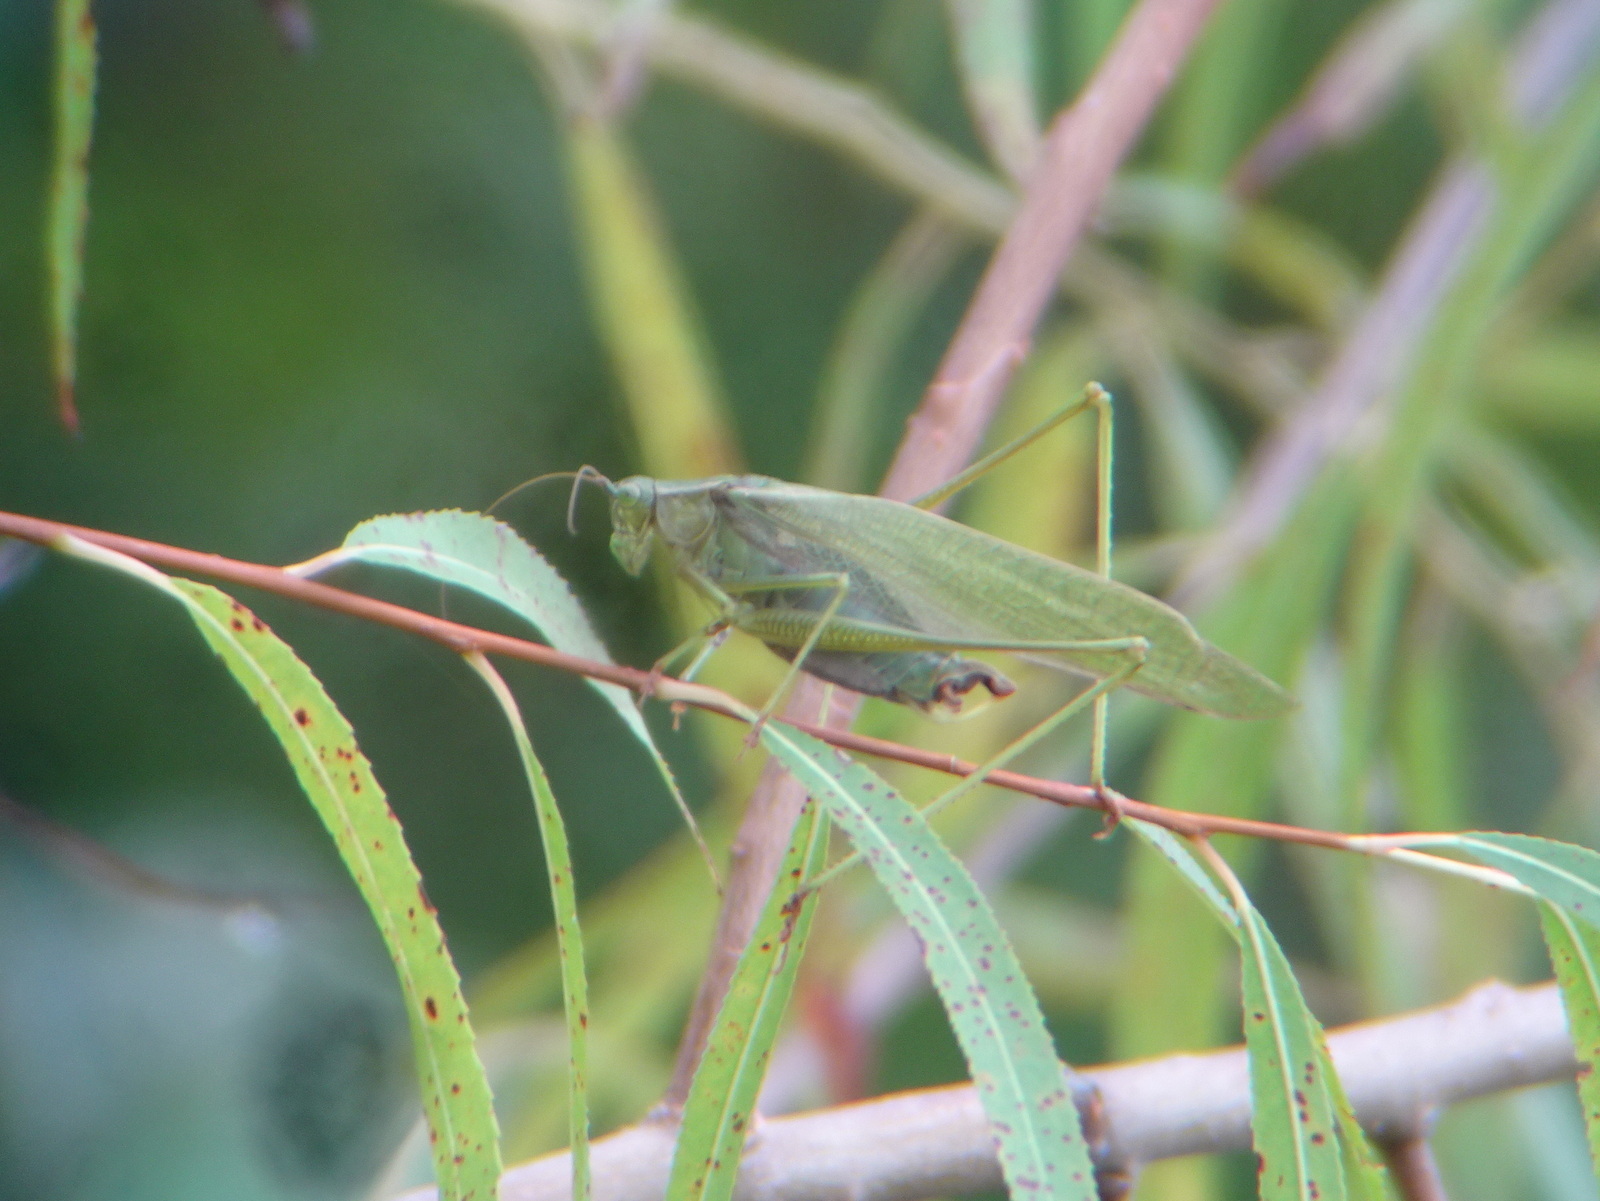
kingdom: Animalia
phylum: Arthropoda
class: Insecta
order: Orthoptera
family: Tettigoniidae
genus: Scudderia
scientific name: Scudderia furcata
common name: Fork-tailed bush katydid
